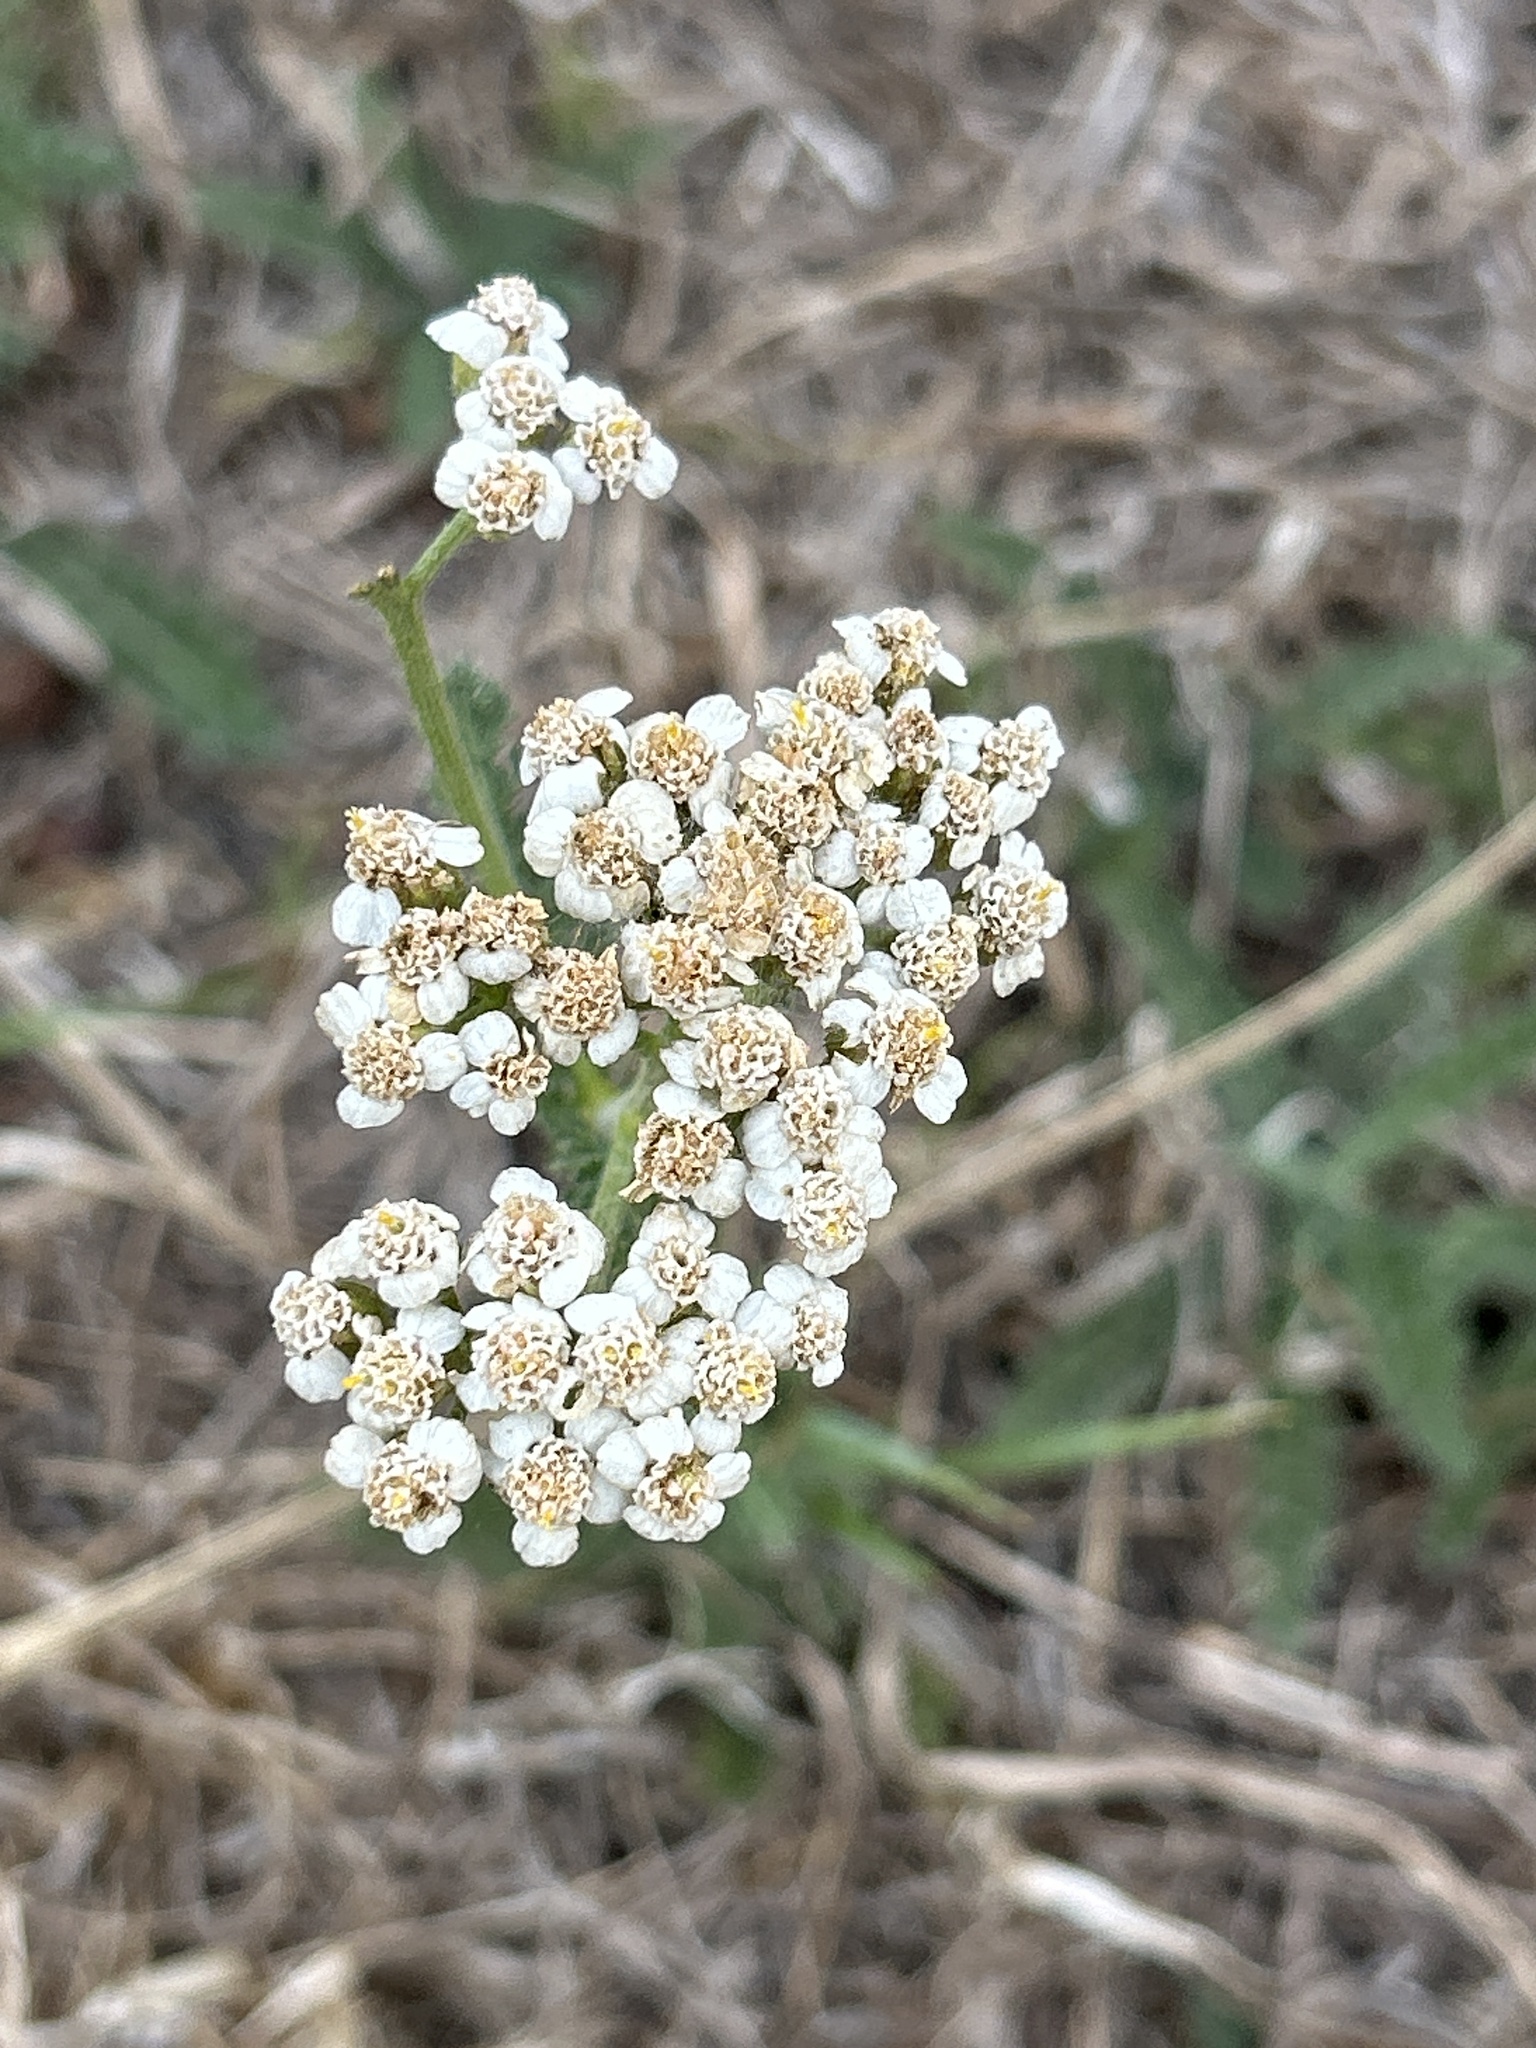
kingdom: Plantae
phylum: Tracheophyta
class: Magnoliopsida
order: Asterales
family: Asteraceae
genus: Achillea
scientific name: Achillea millefolium
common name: Yarrow
